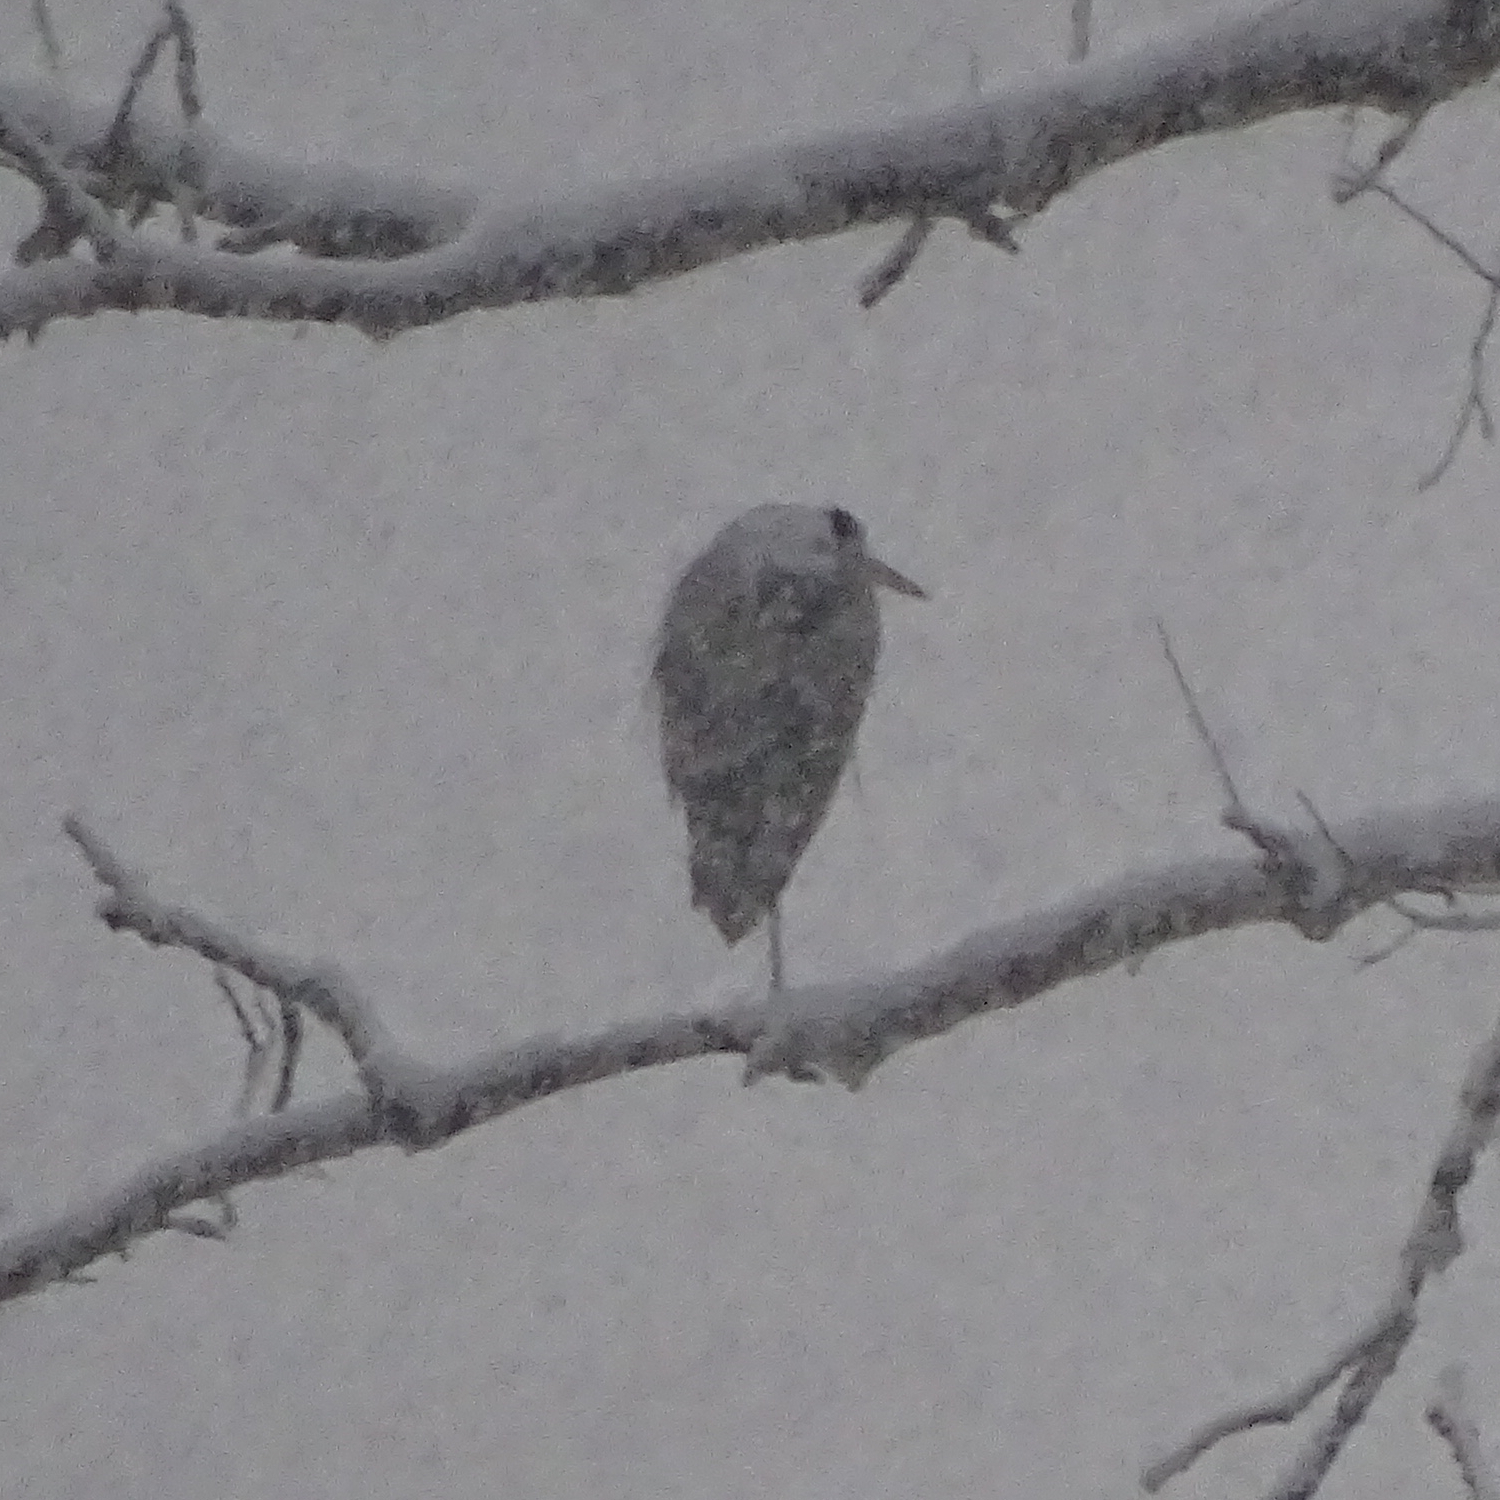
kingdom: Animalia
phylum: Chordata
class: Aves
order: Pelecaniformes
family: Ardeidae
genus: Ardea
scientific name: Ardea cinerea
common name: Grey heron
